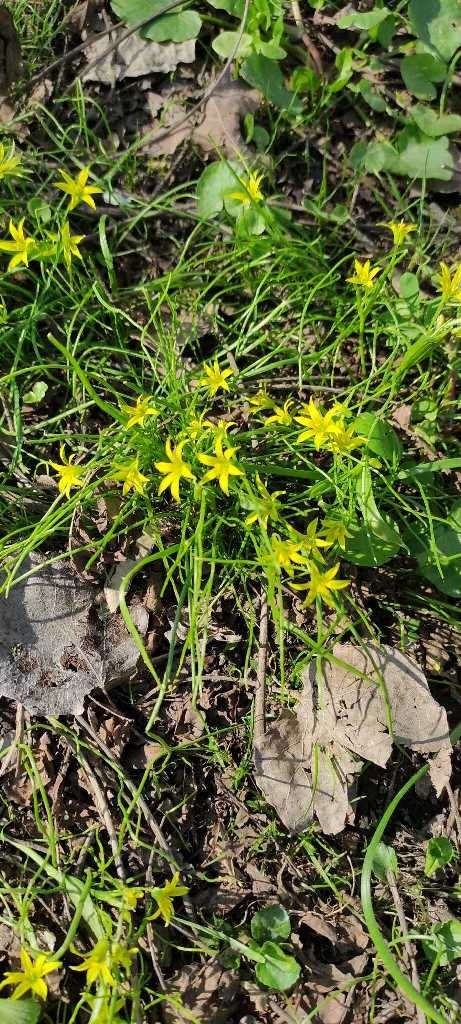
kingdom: Plantae
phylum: Tracheophyta
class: Liliopsida
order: Liliales
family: Liliaceae
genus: Gagea
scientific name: Gagea minima
